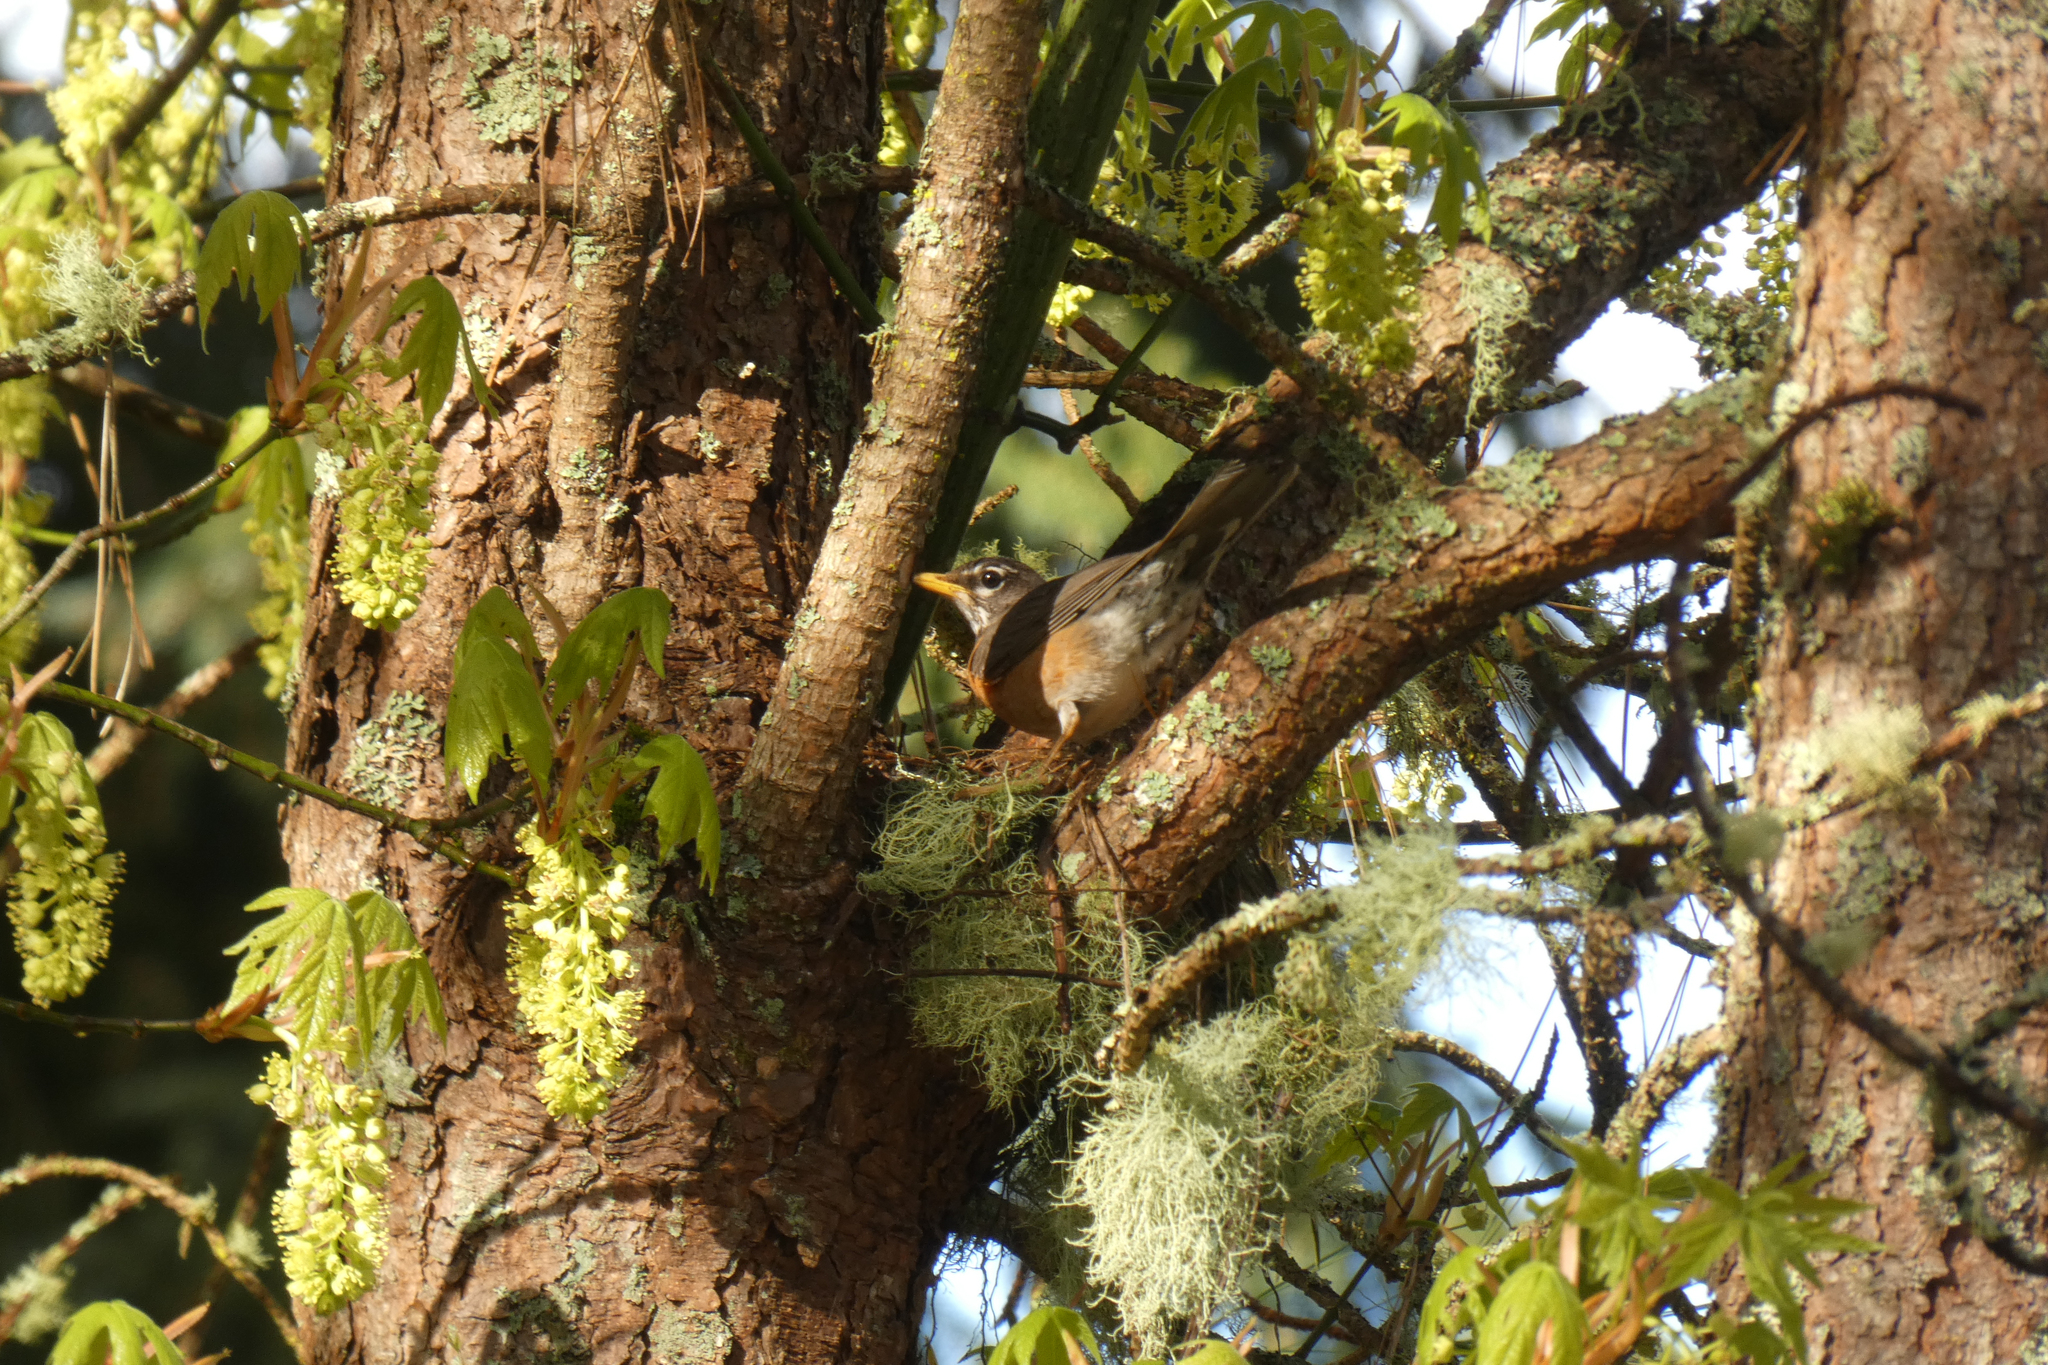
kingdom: Animalia
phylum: Chordata
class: Aves
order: Passeriformes
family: Turdidae
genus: Turdus
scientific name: Turdus migratorius
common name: American robin
